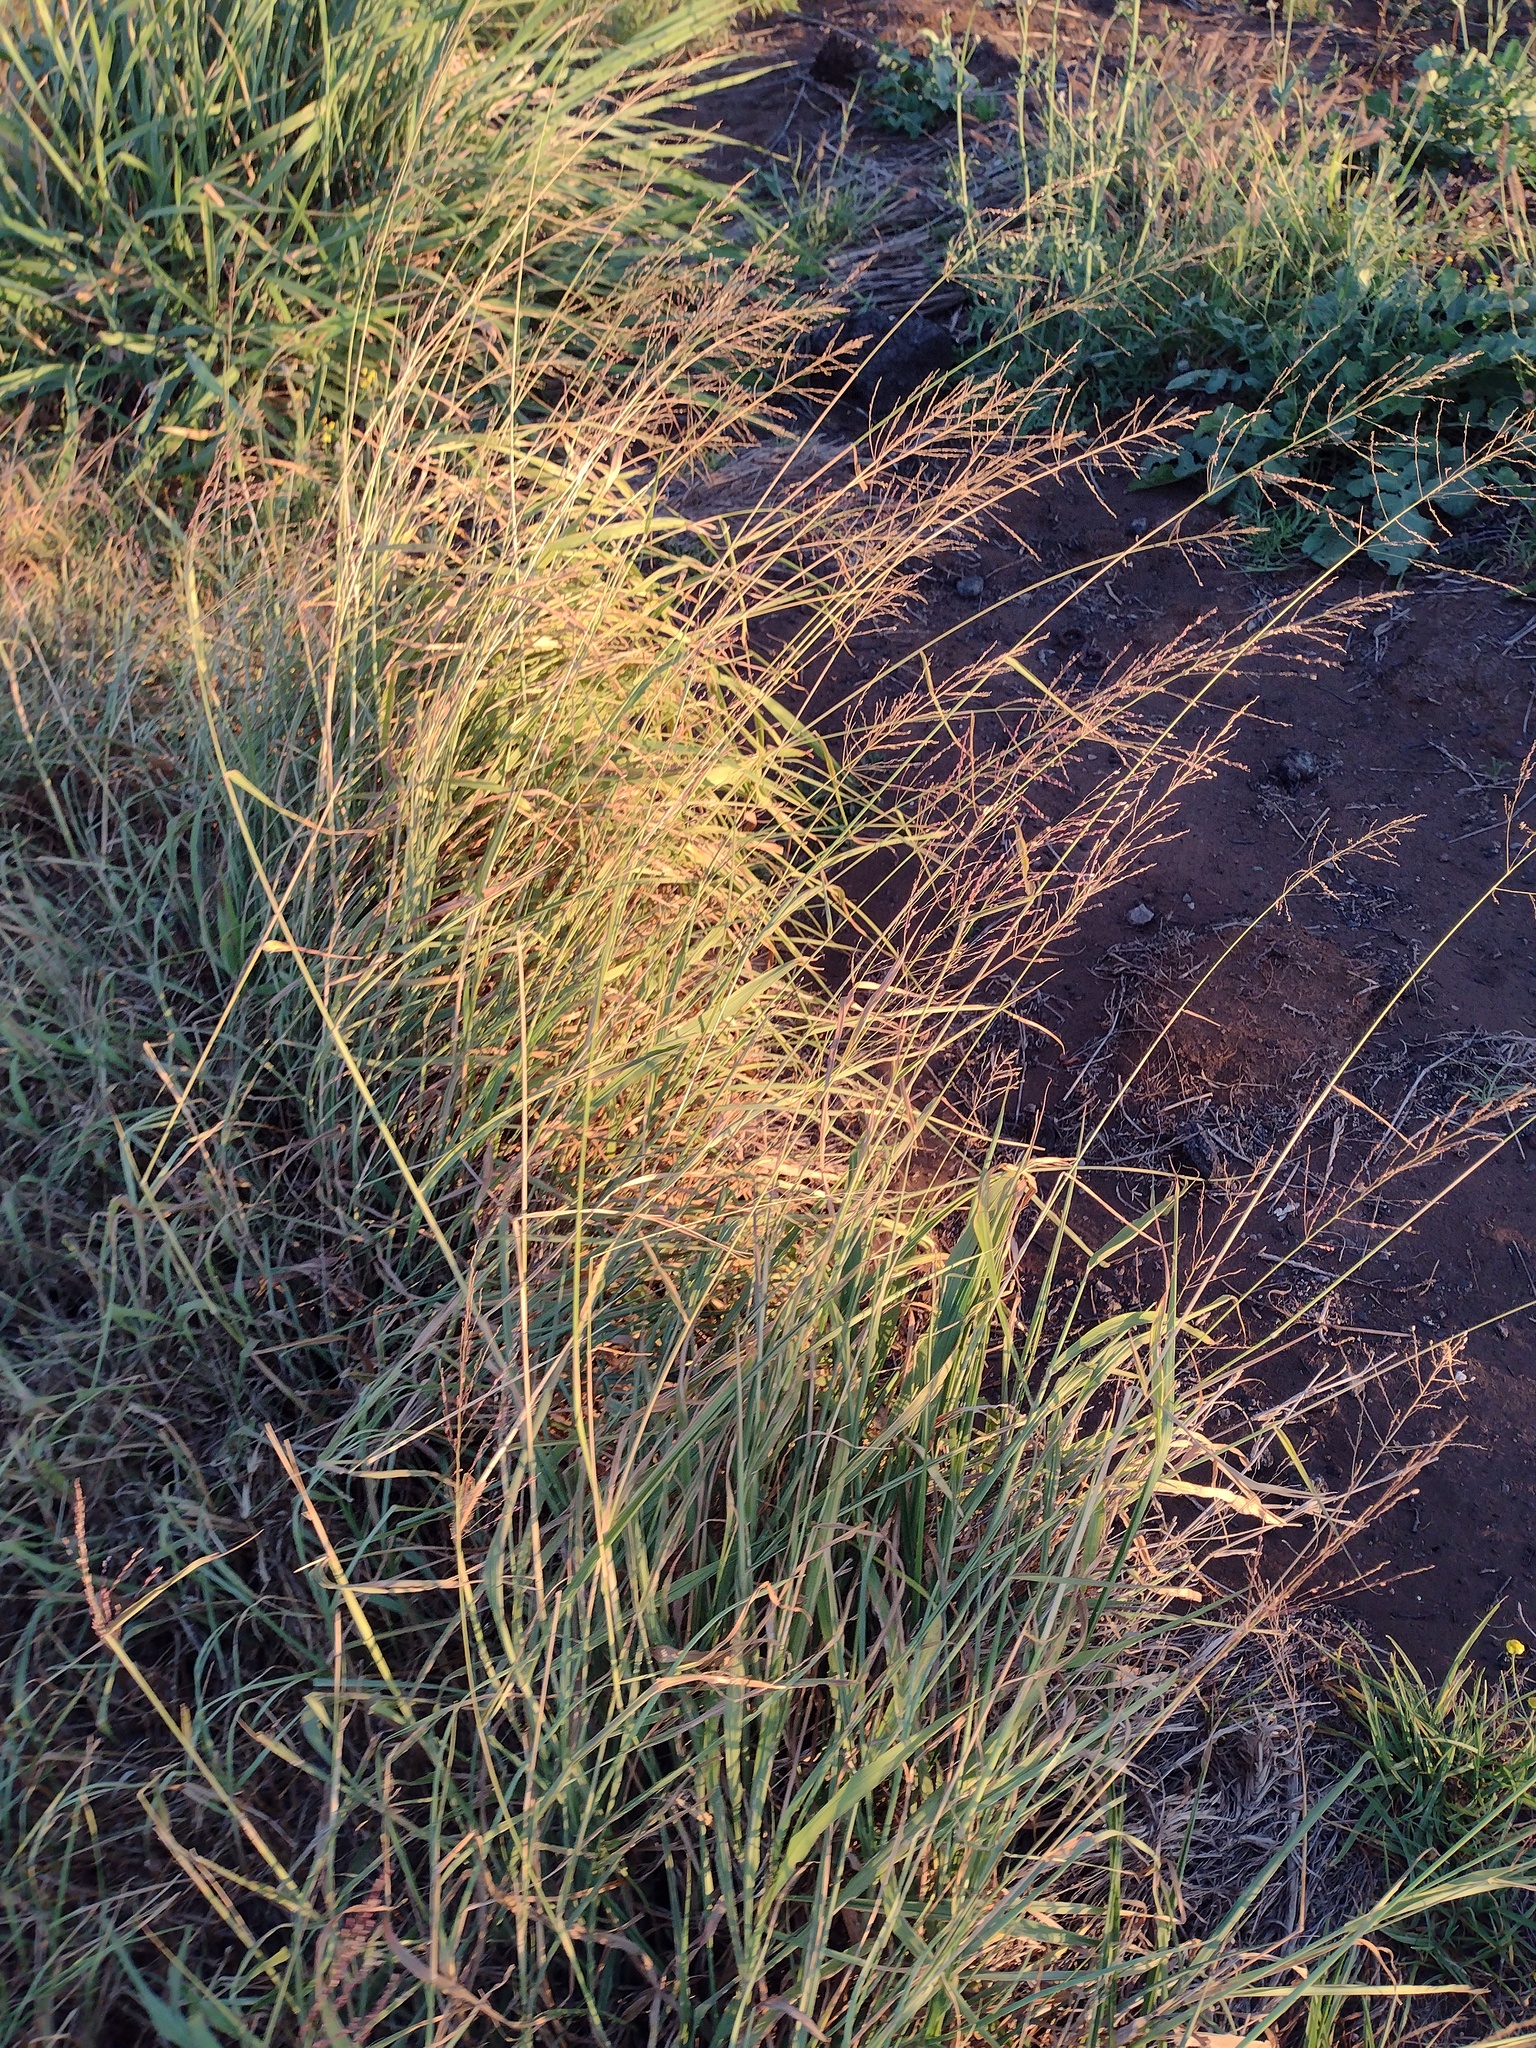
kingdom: Plantae
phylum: Tracheophyta
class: Liliopsida
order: Poales
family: Poaceae
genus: Megathyrsus
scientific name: Megathyrsus maximus
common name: Guineagrass
